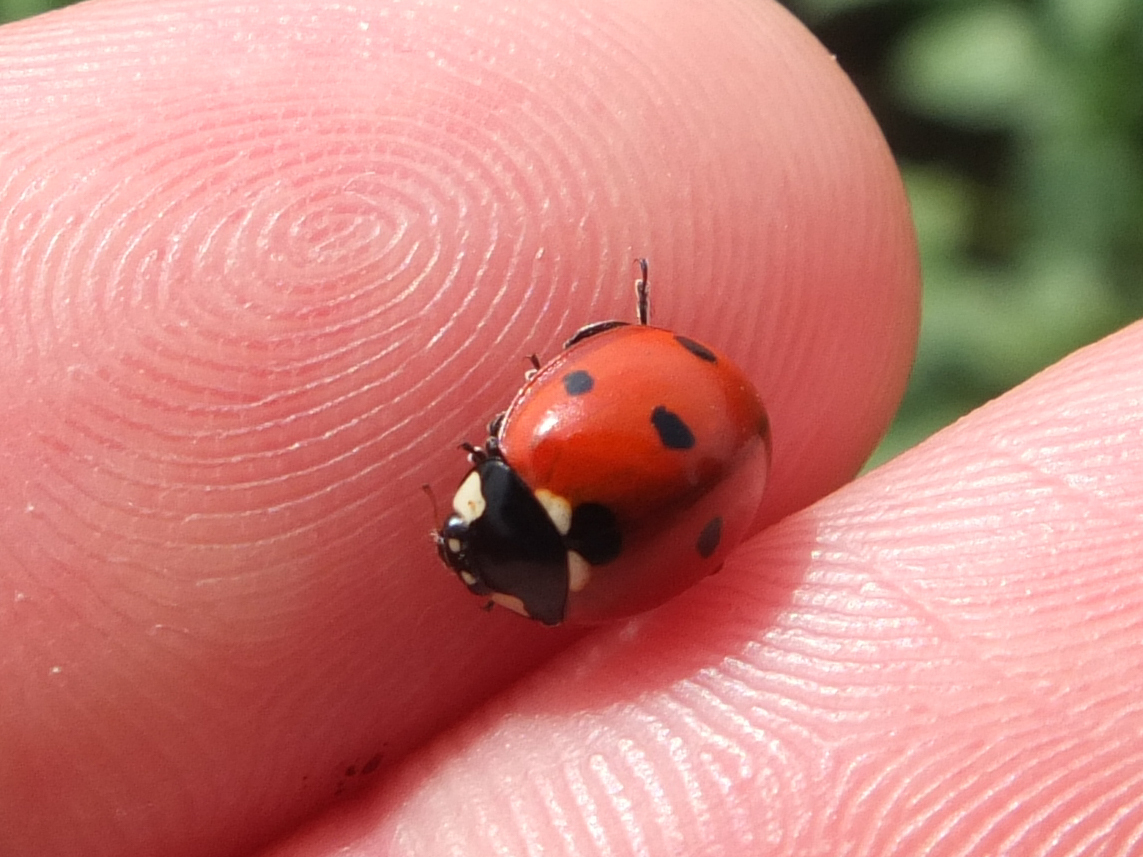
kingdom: Animalia
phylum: Arthropoda
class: Insecta
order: Coleoptera
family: Coccinellidae
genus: Coccinella
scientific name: Coccinella septempunctata
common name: Sevenspotted lady beetle
